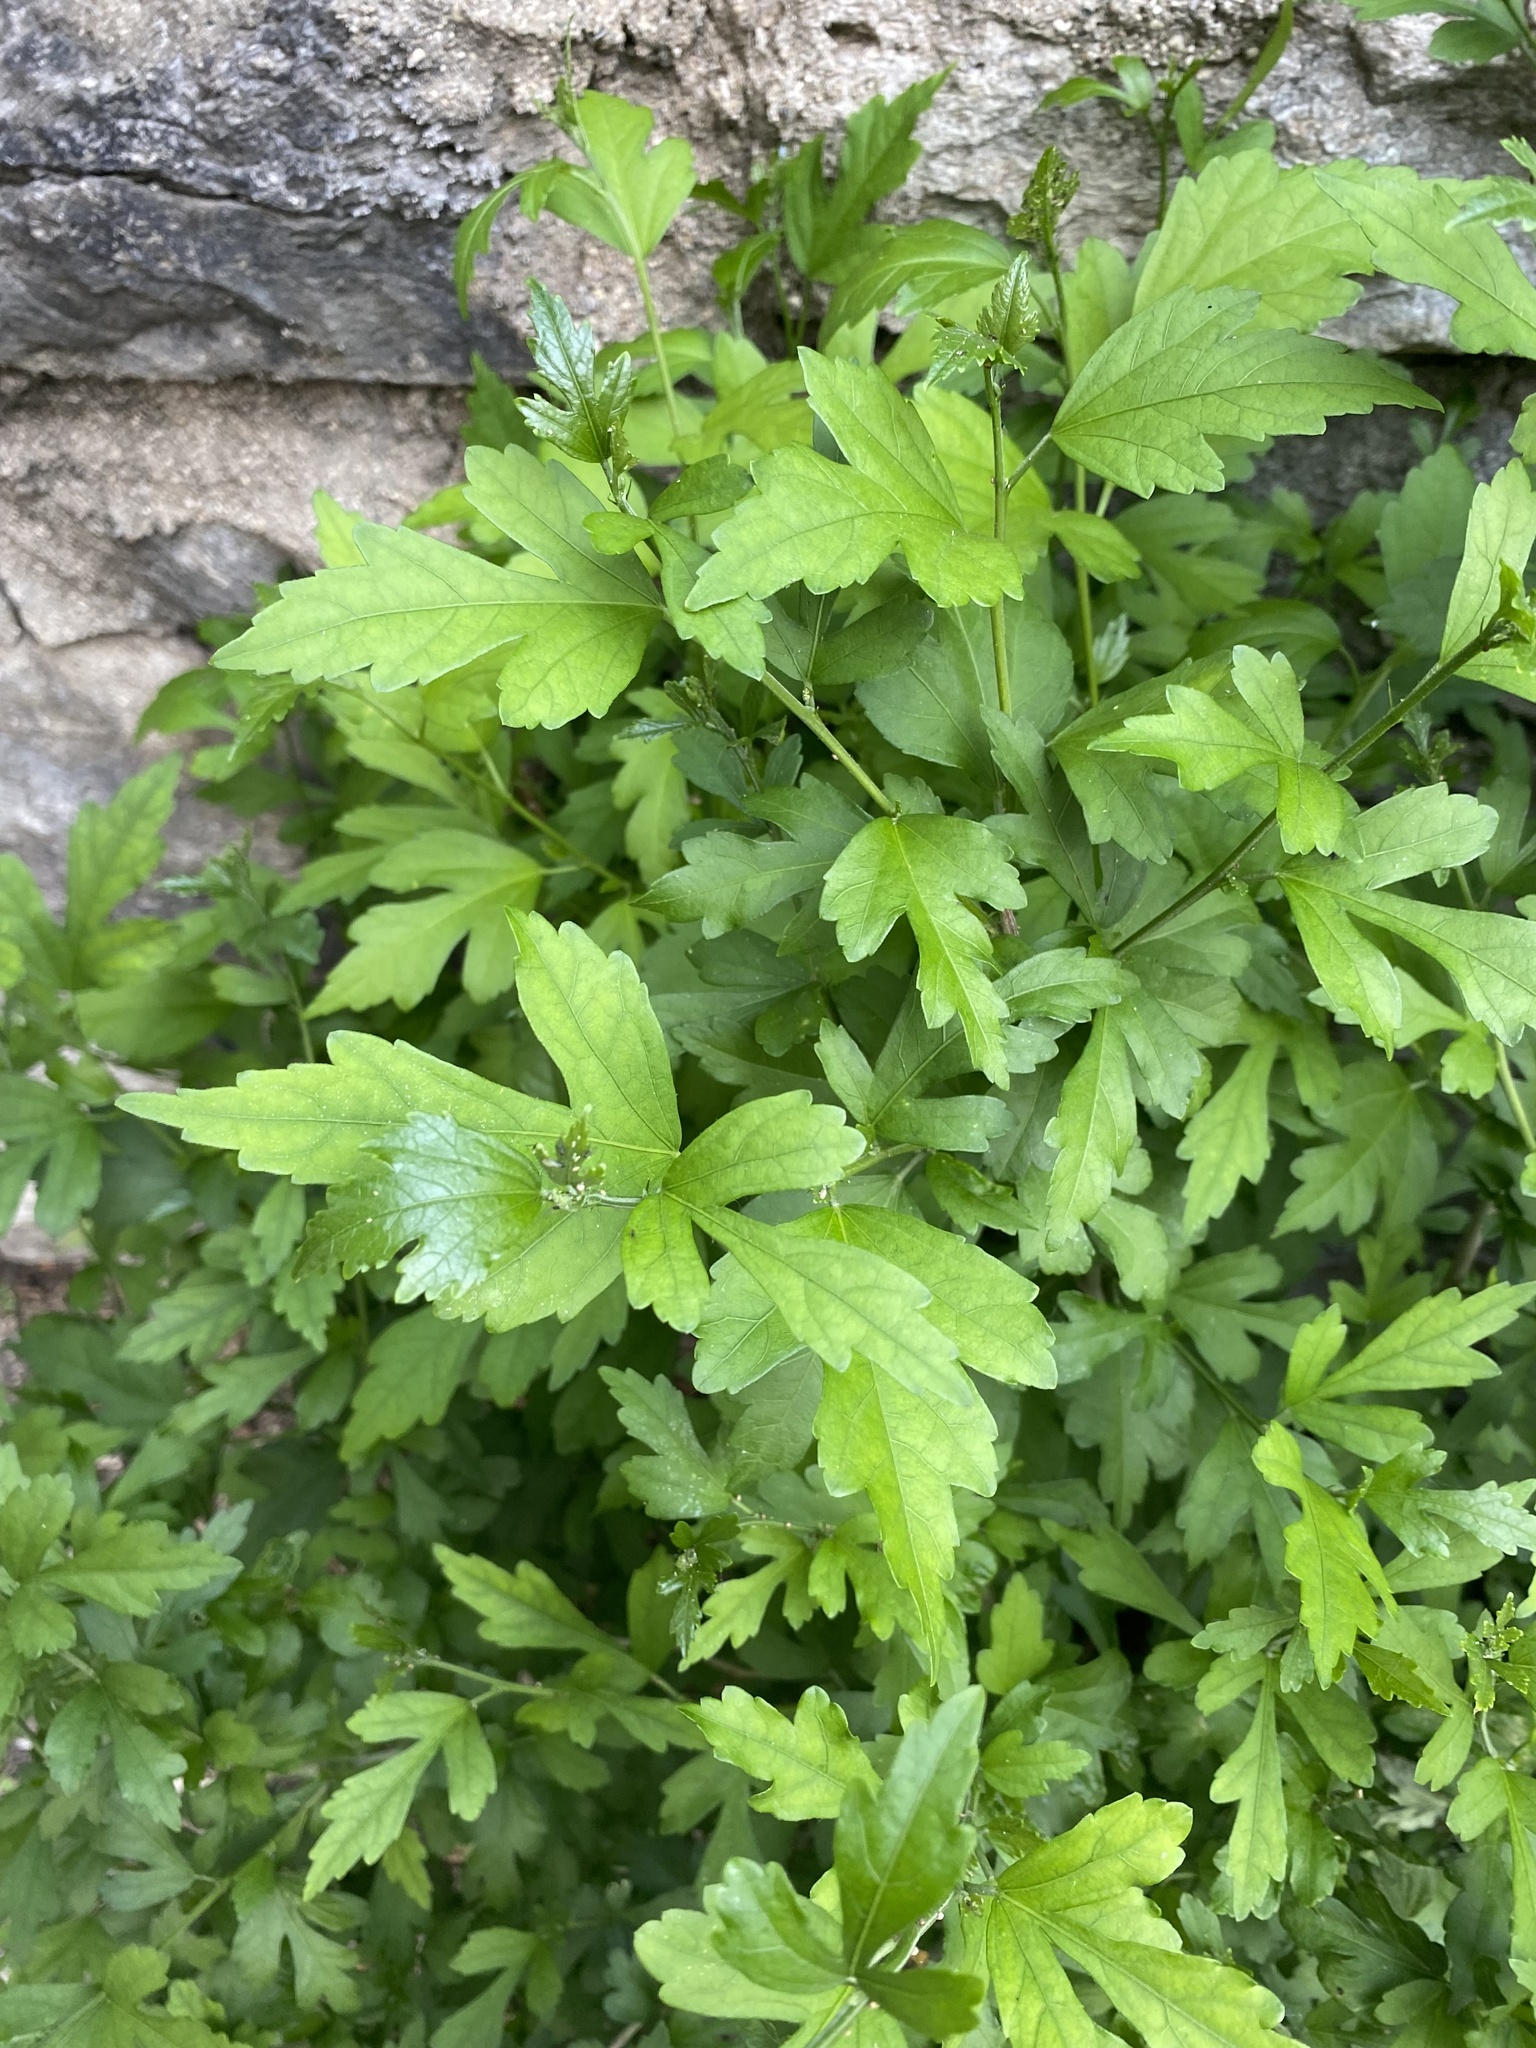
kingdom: Plantae
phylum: Tracheophyta
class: Magnoliopsida
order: Malvales
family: Malvaceae
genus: Hibiscus
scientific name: Hibiscus syriacus
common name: Syrian ketmia
